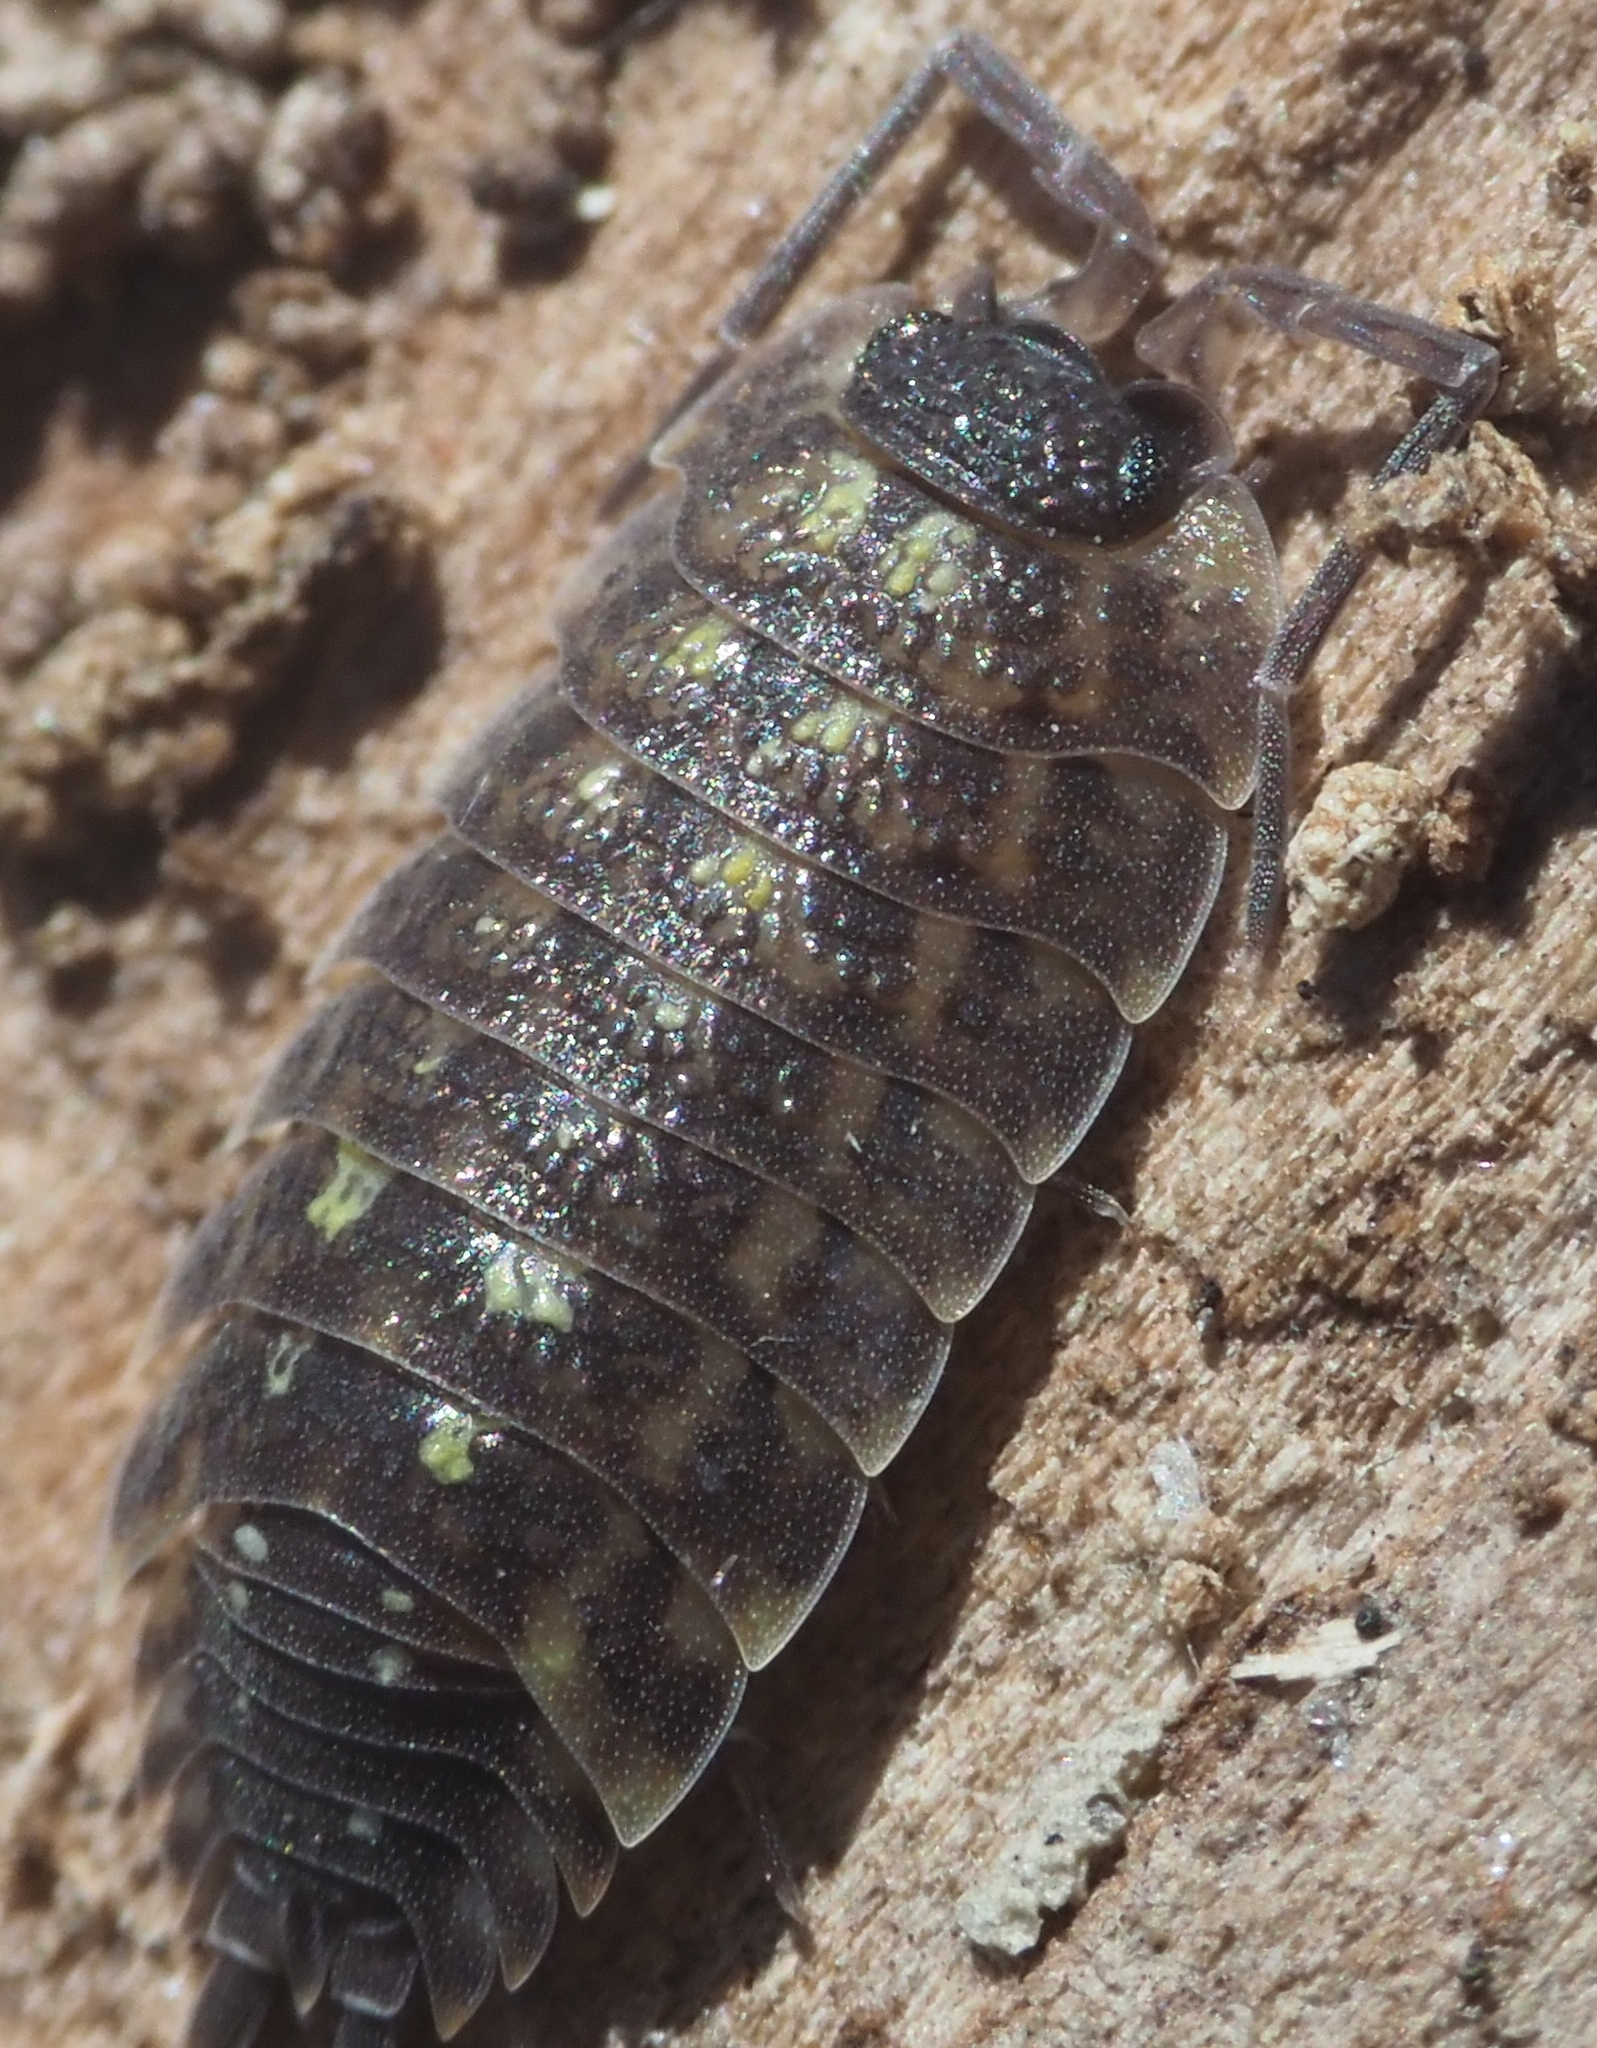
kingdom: Animalia
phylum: Arthropoda
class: Malacostraca
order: Isopoda
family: Porcellionidae
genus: Porcellio
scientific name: Porcellio spinicornis
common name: Painted woodlouse
